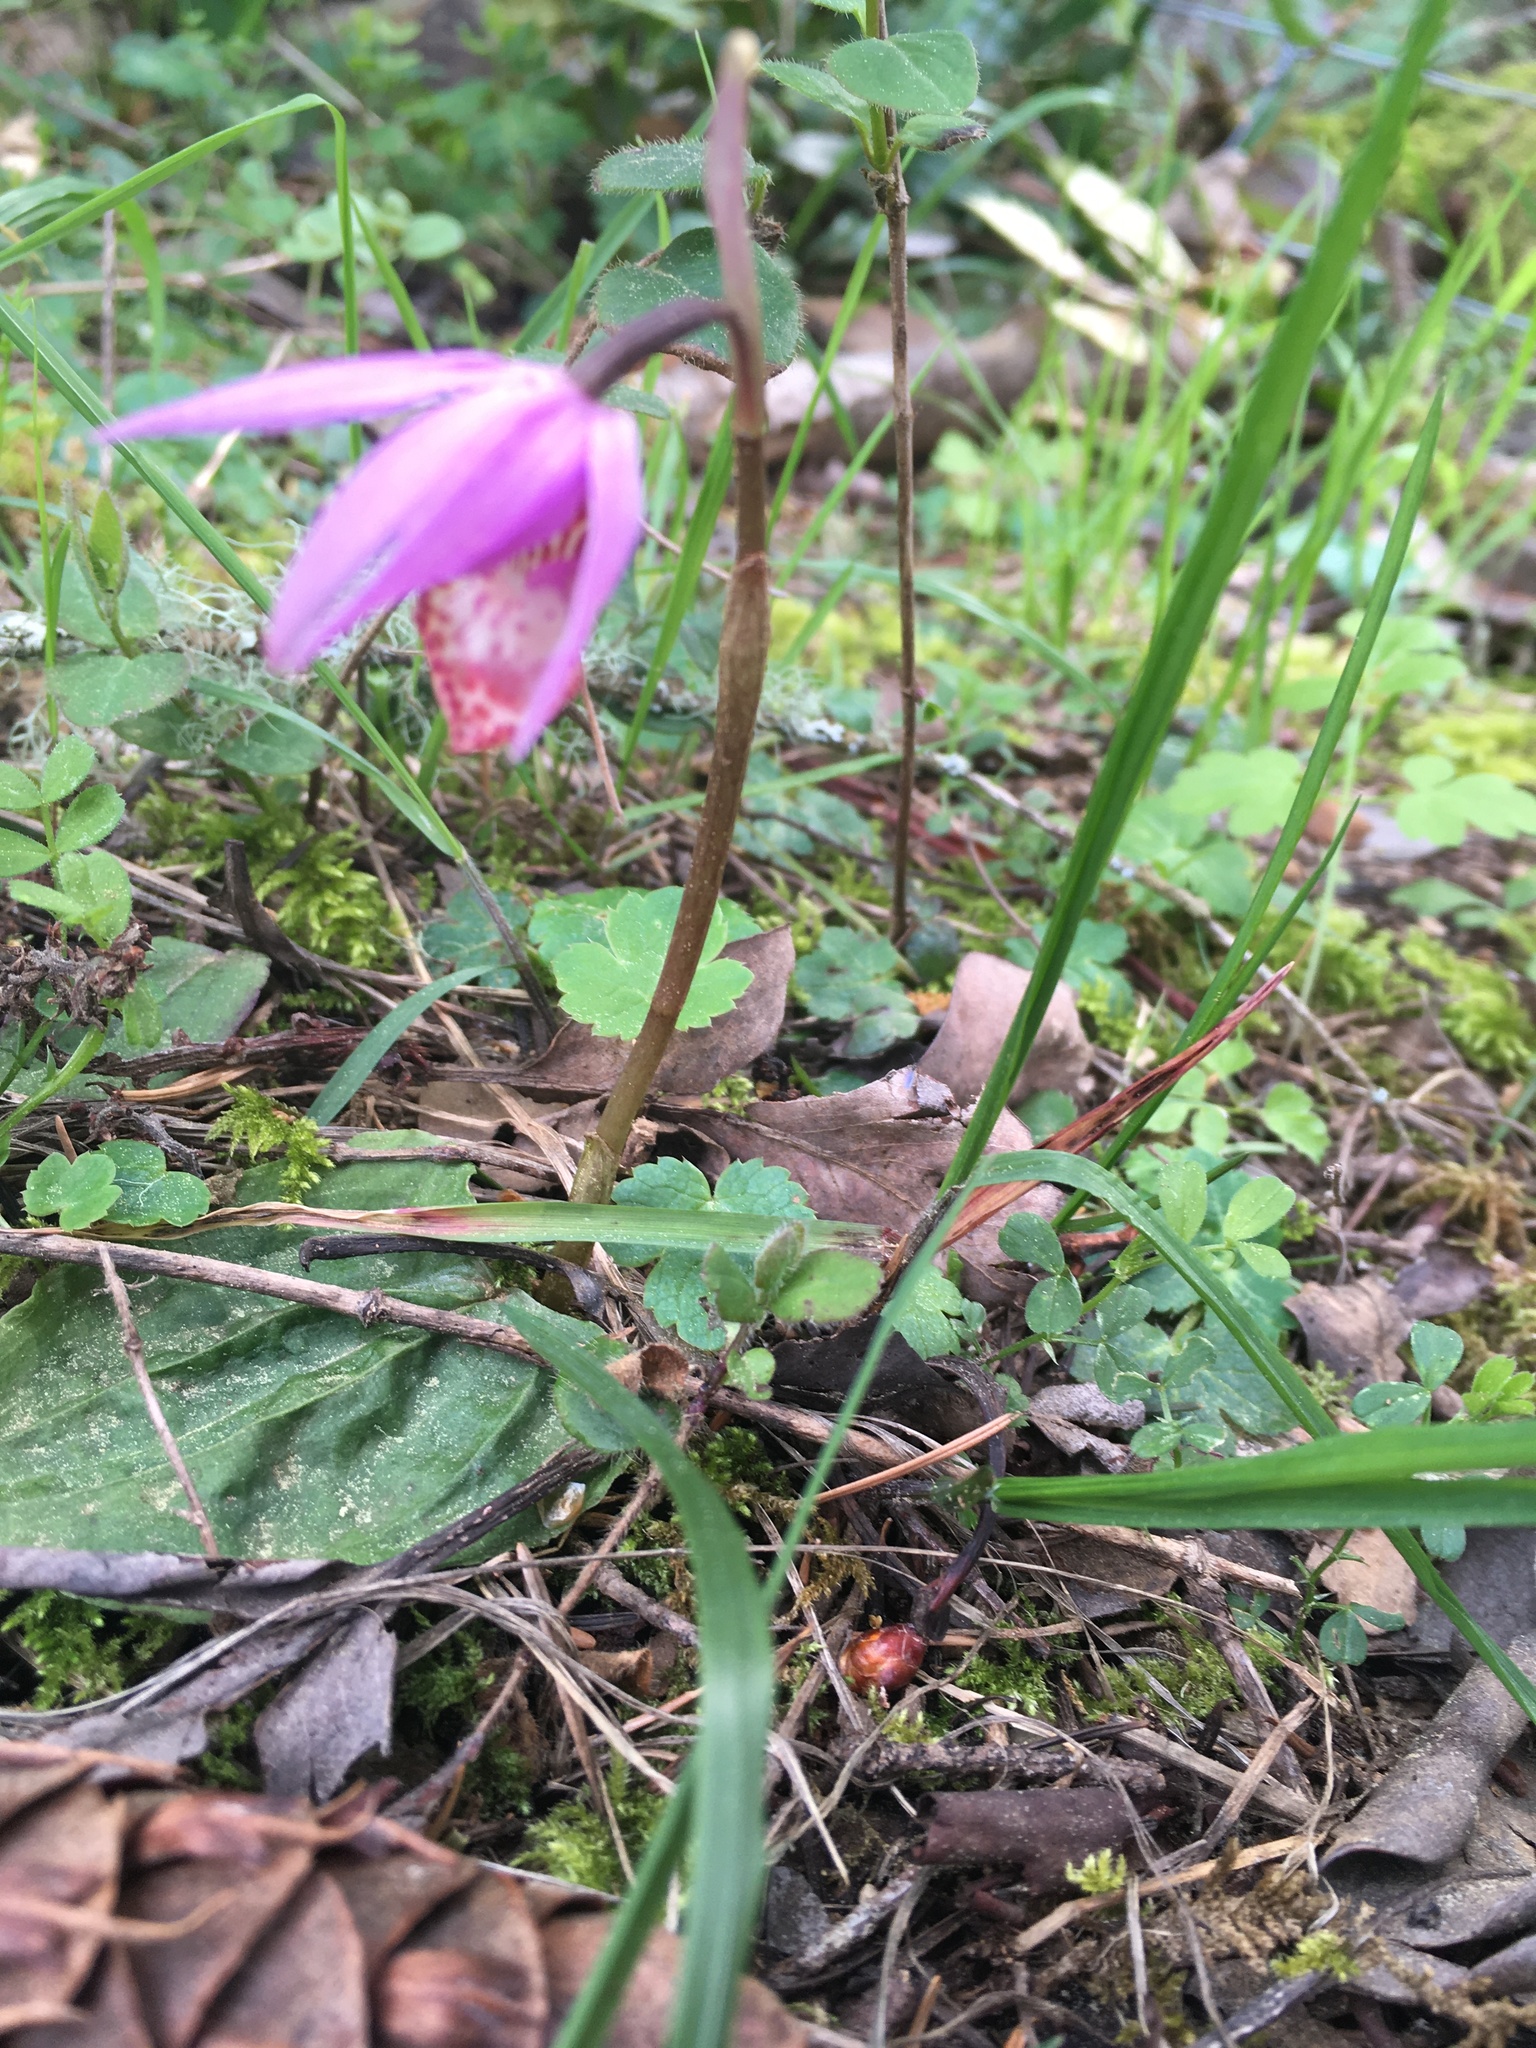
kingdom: Plantae
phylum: Tracheophyta
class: Liliopsida
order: Asparagales
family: Orchidaceae
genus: Calypso
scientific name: Calypso bulbosa
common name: Calypso
